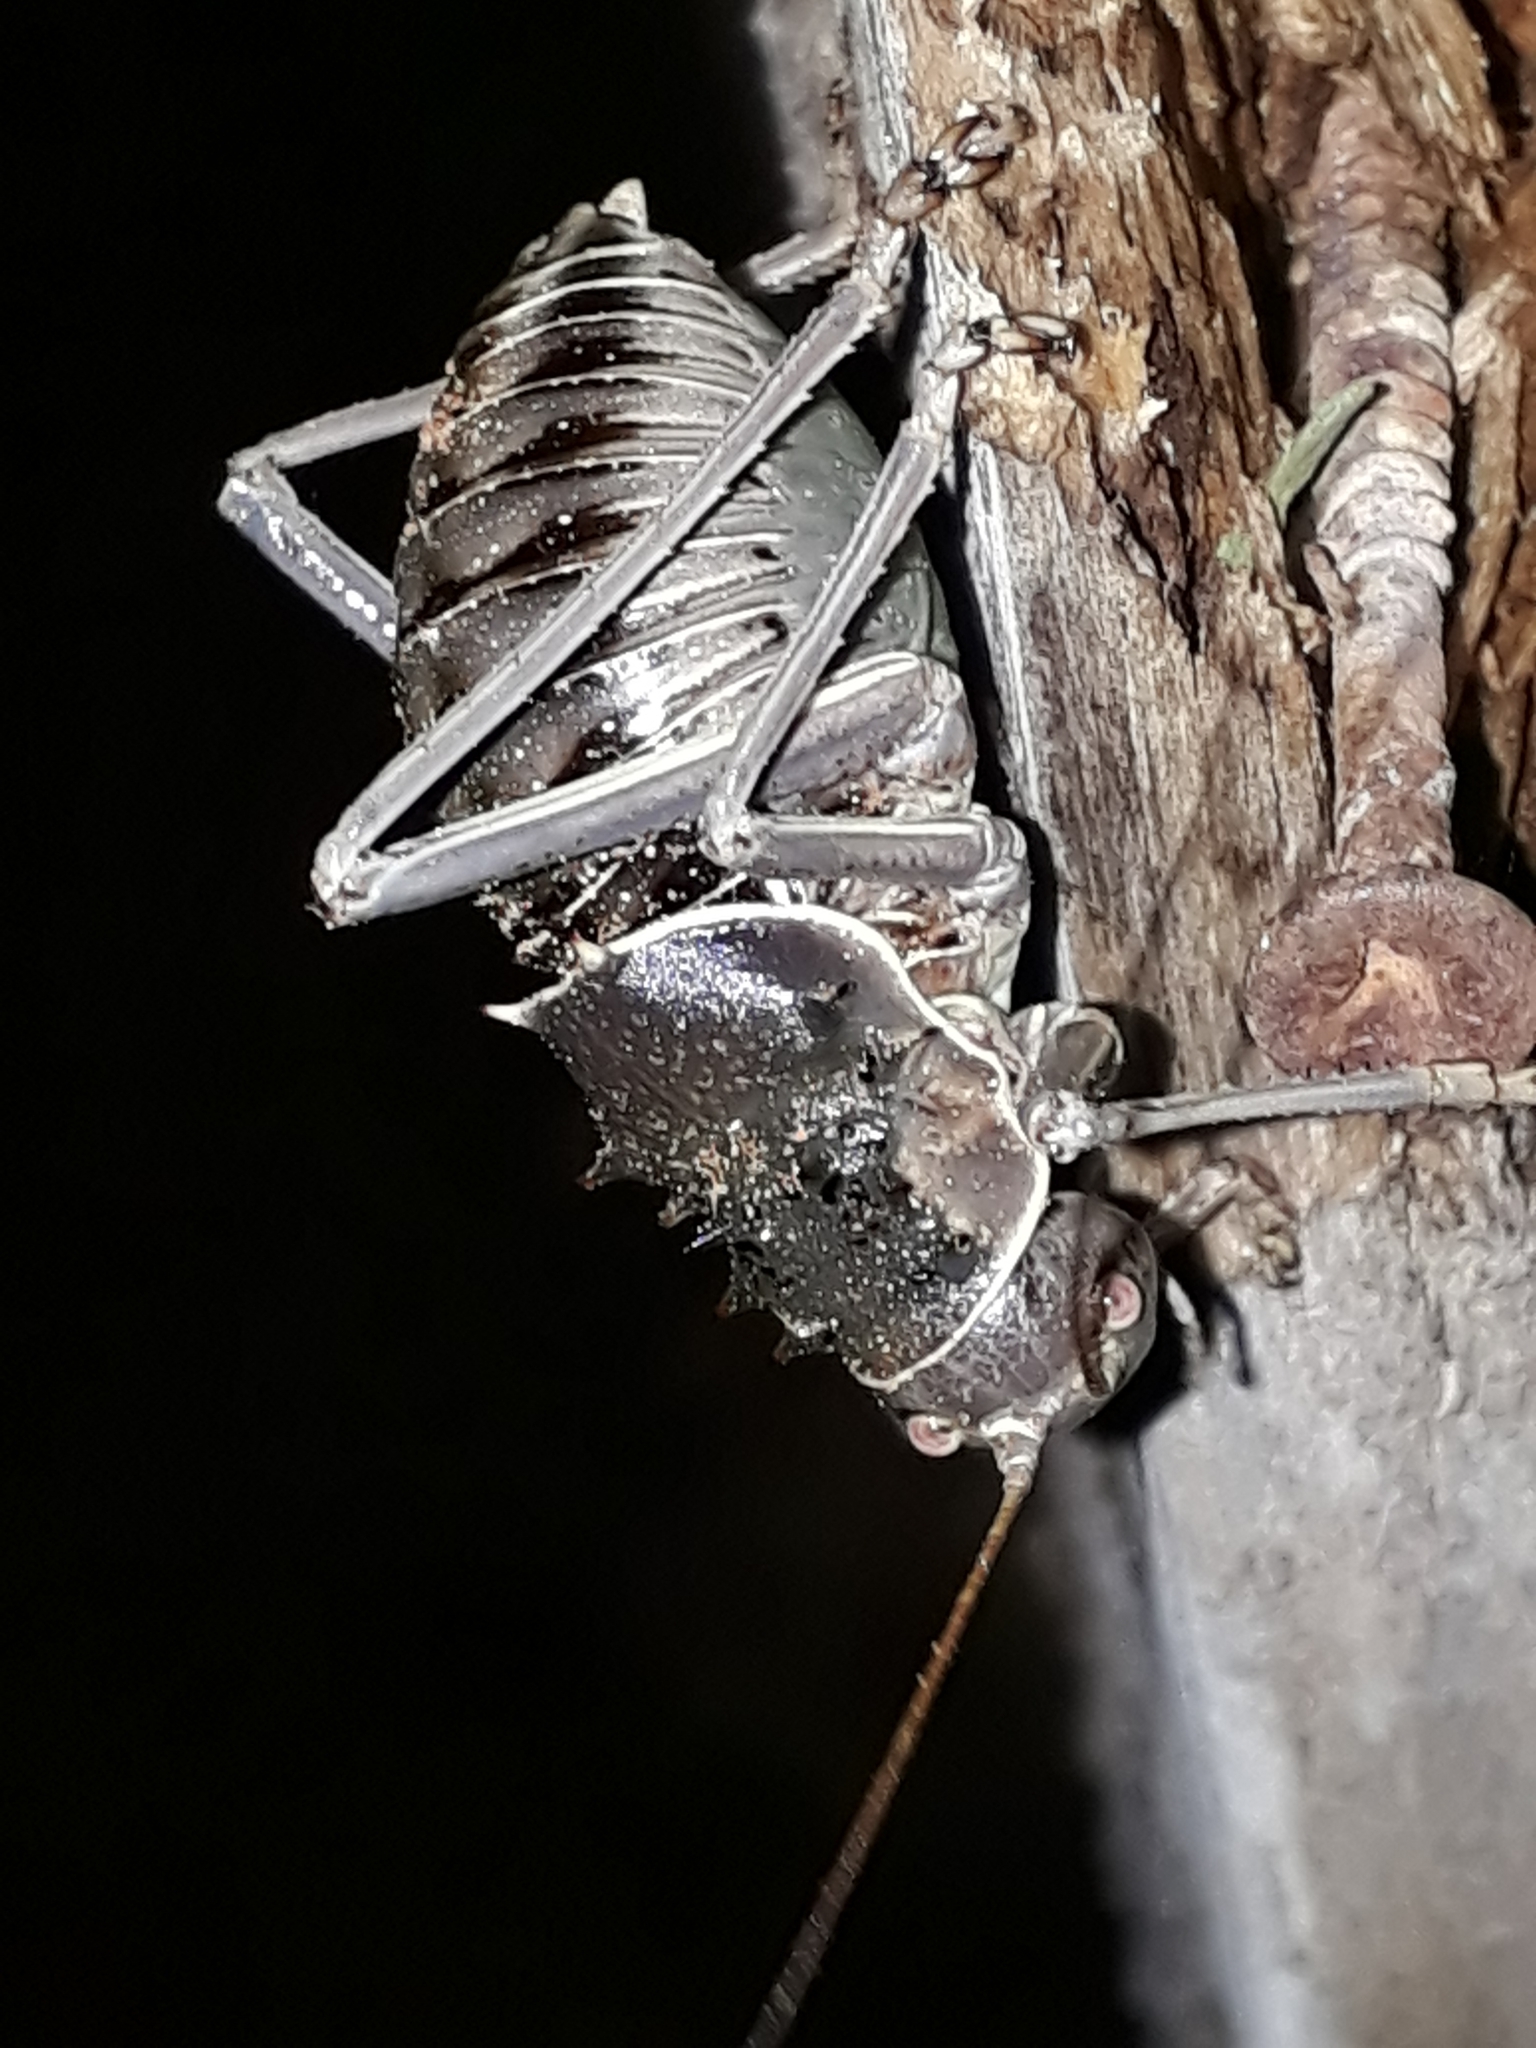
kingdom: Animalia
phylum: Arthropoda
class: Insecta
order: Orthoptera
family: Tettigoniidae
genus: Acanthoplus
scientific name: Acanthoplus discoidalis
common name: Armoured katydid
